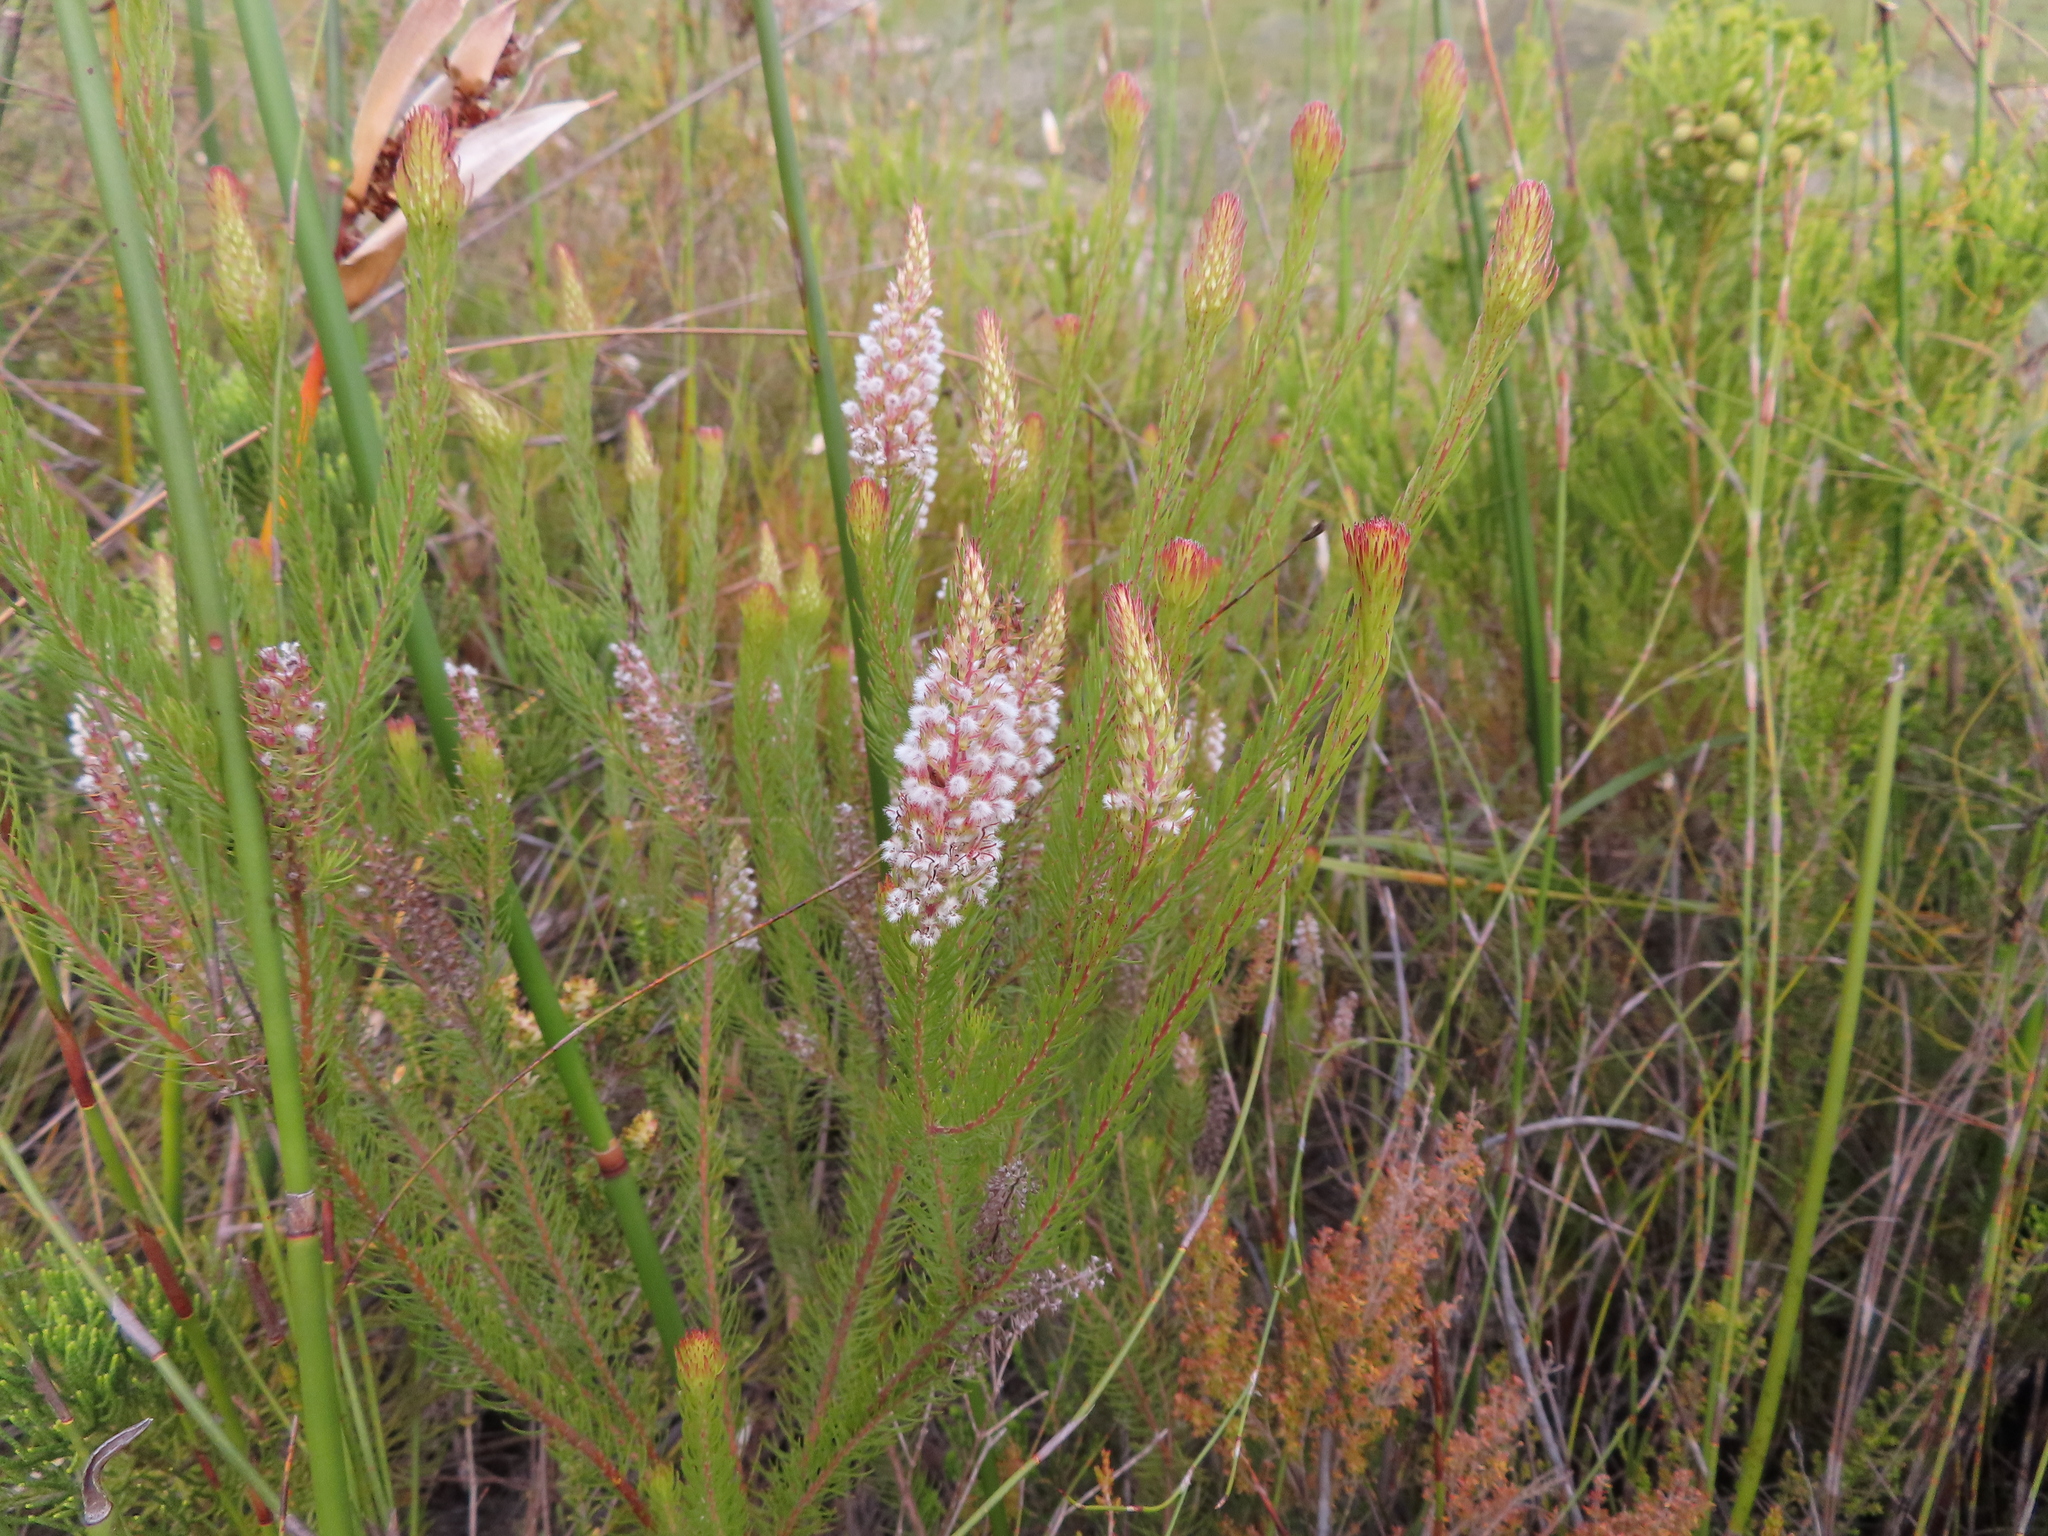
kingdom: Plantae
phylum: Tracheophyta
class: Magnoliopsida
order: Proteales
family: Proteaceae
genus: Spatalla
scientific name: Spatalla parilis
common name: Spike spoon
